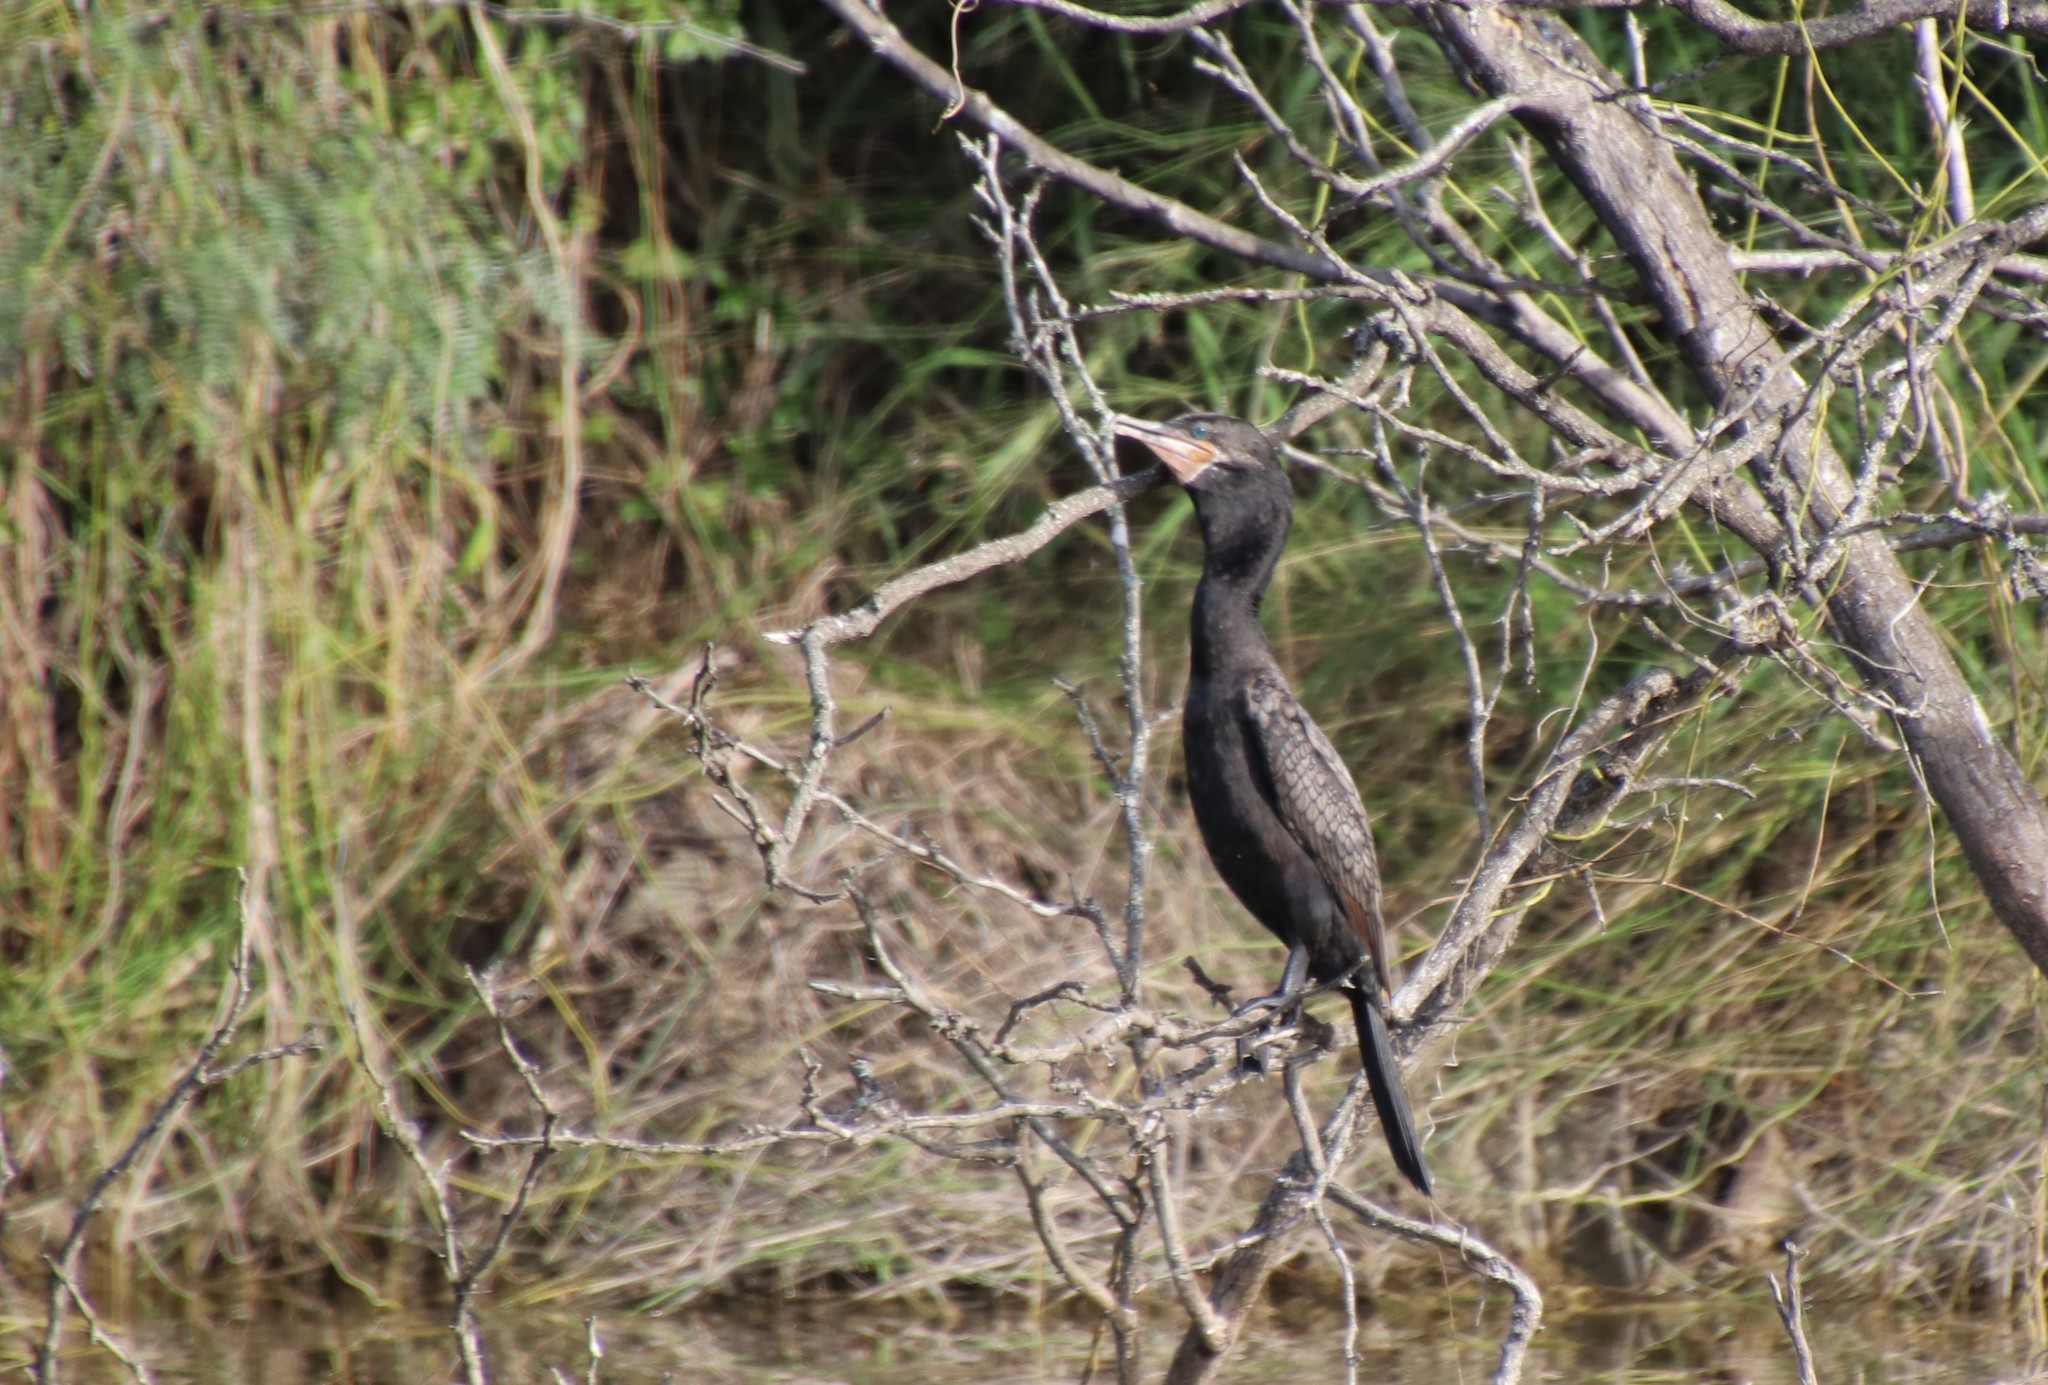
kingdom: Animalia
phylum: Chordata
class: Aves
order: Suliformes
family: Phalacrocoracidae
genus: Phalacrocorax
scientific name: Phalacrocorax brasilianus
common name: Neotropic cormorant
